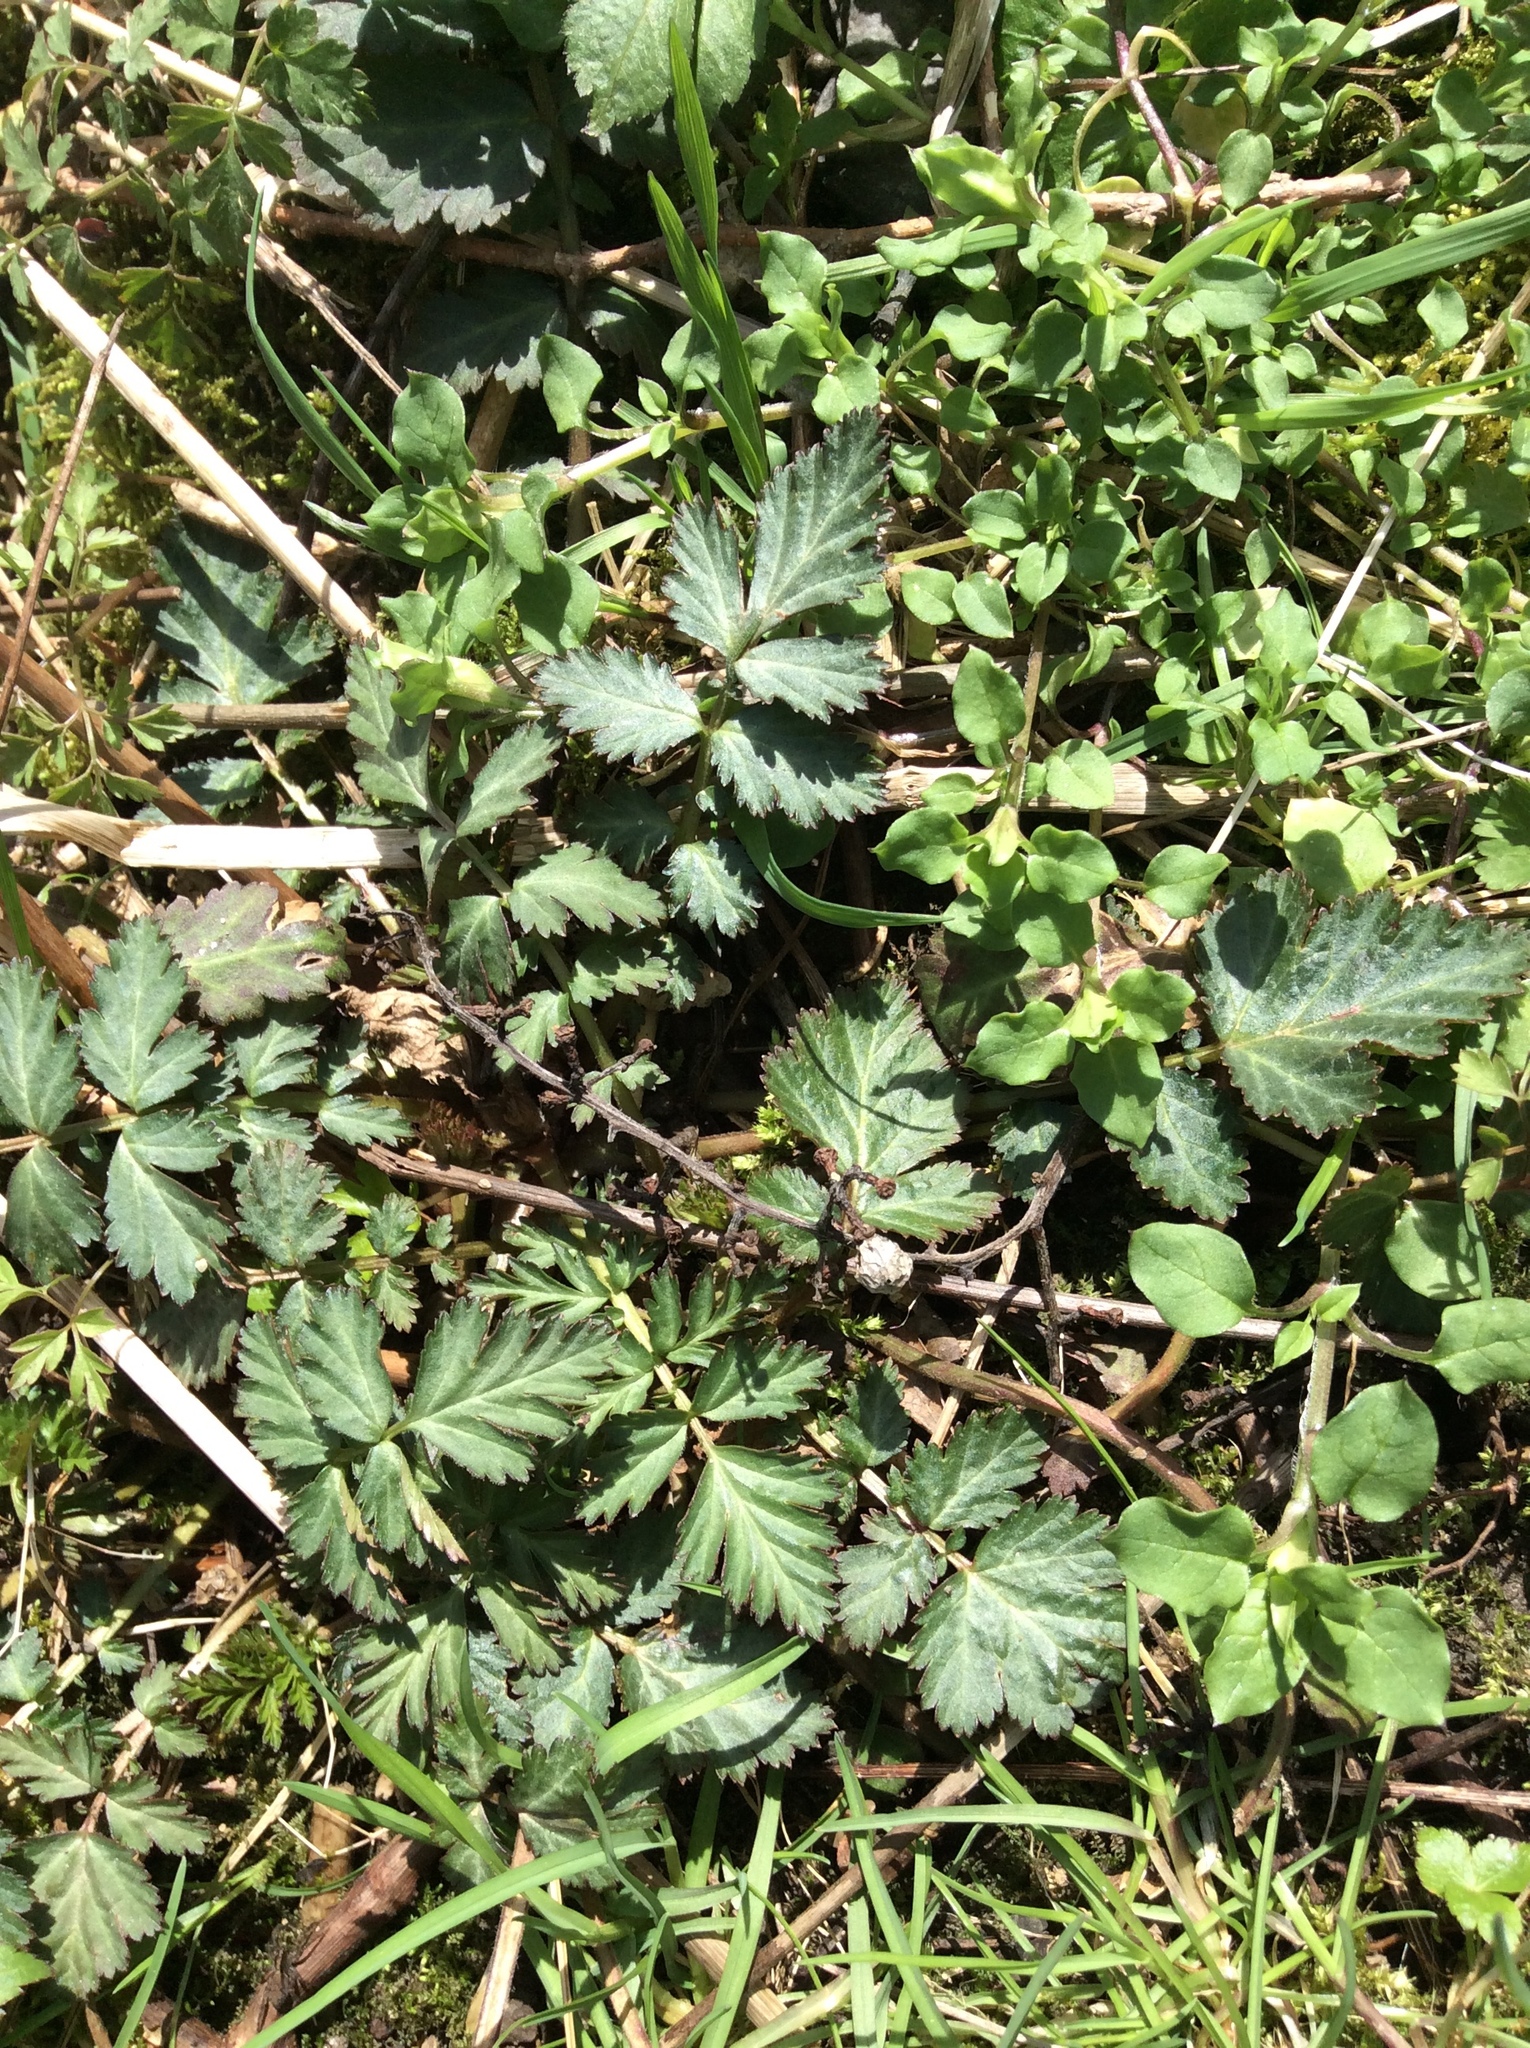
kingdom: Plantae
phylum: Tracheophyta
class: Magnoliopsida
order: Rosales
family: Rosaceae
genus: Geum
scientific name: Geum canadense
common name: White avens
